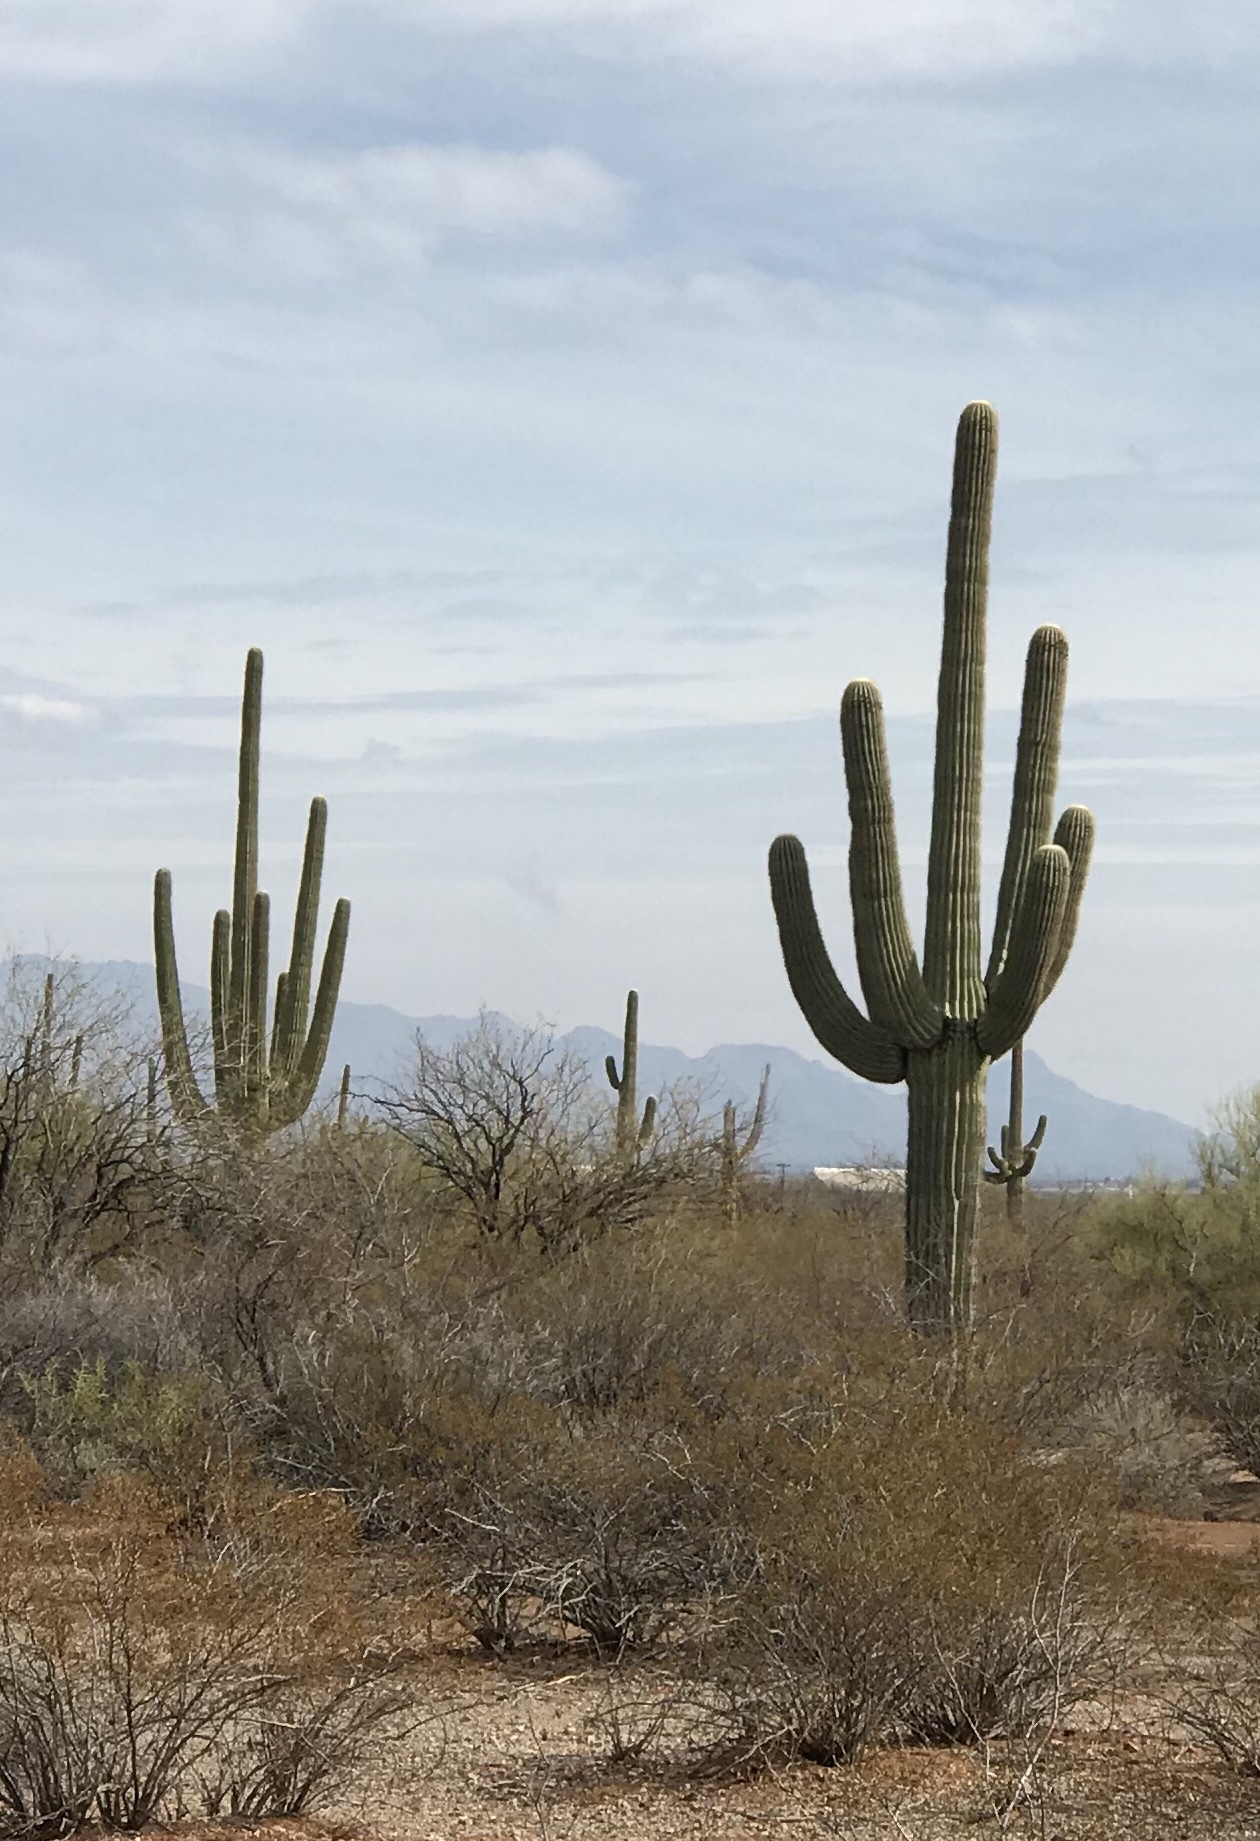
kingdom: Plantae
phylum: Tracheophyta
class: Magnoliopsida
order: Caryophyllales
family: Cactaceae
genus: Carnegiea
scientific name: Carnegiea gigantea
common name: Saguaro
